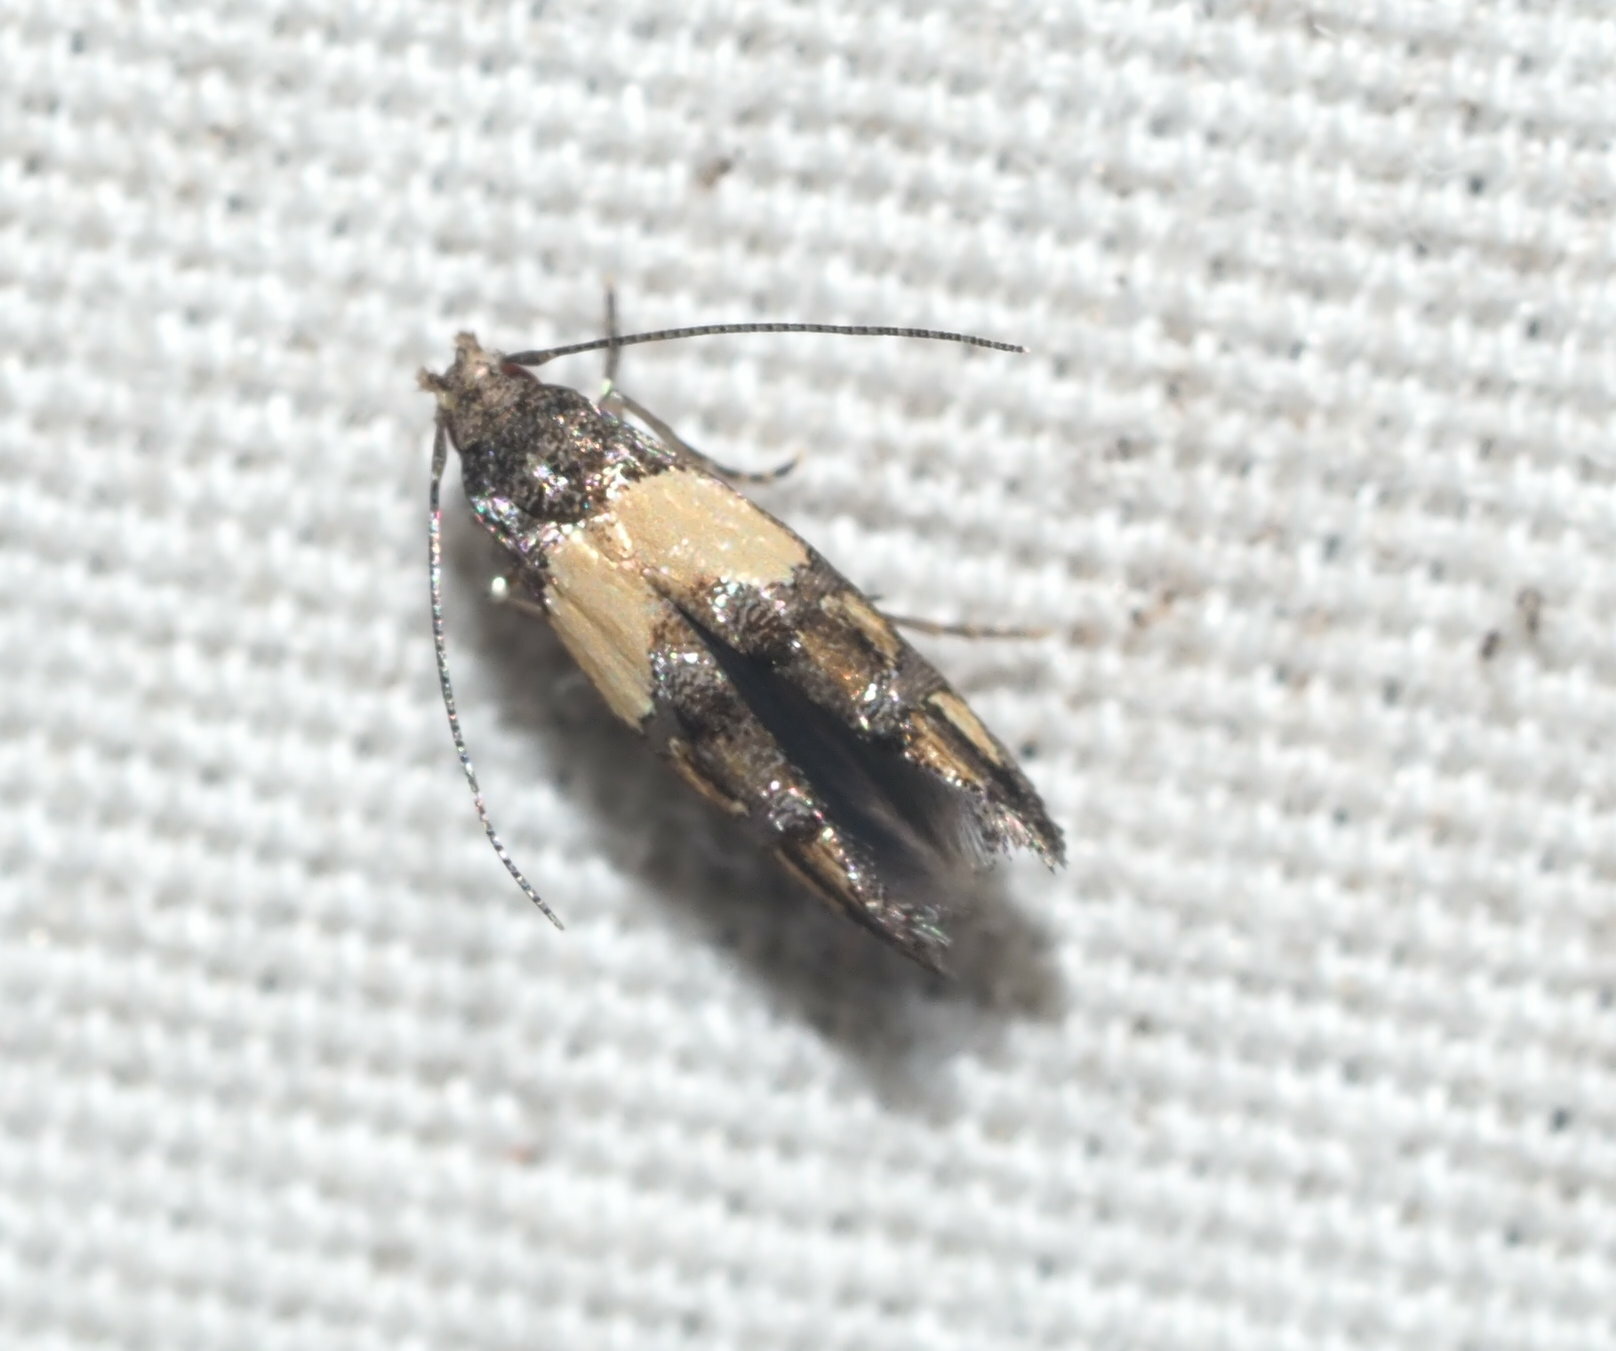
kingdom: Animalia
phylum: Arthropoda
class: Insecta
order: Lepidoptera
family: Momphidae
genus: Mompha
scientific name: Mompha trithalama
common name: Moth
